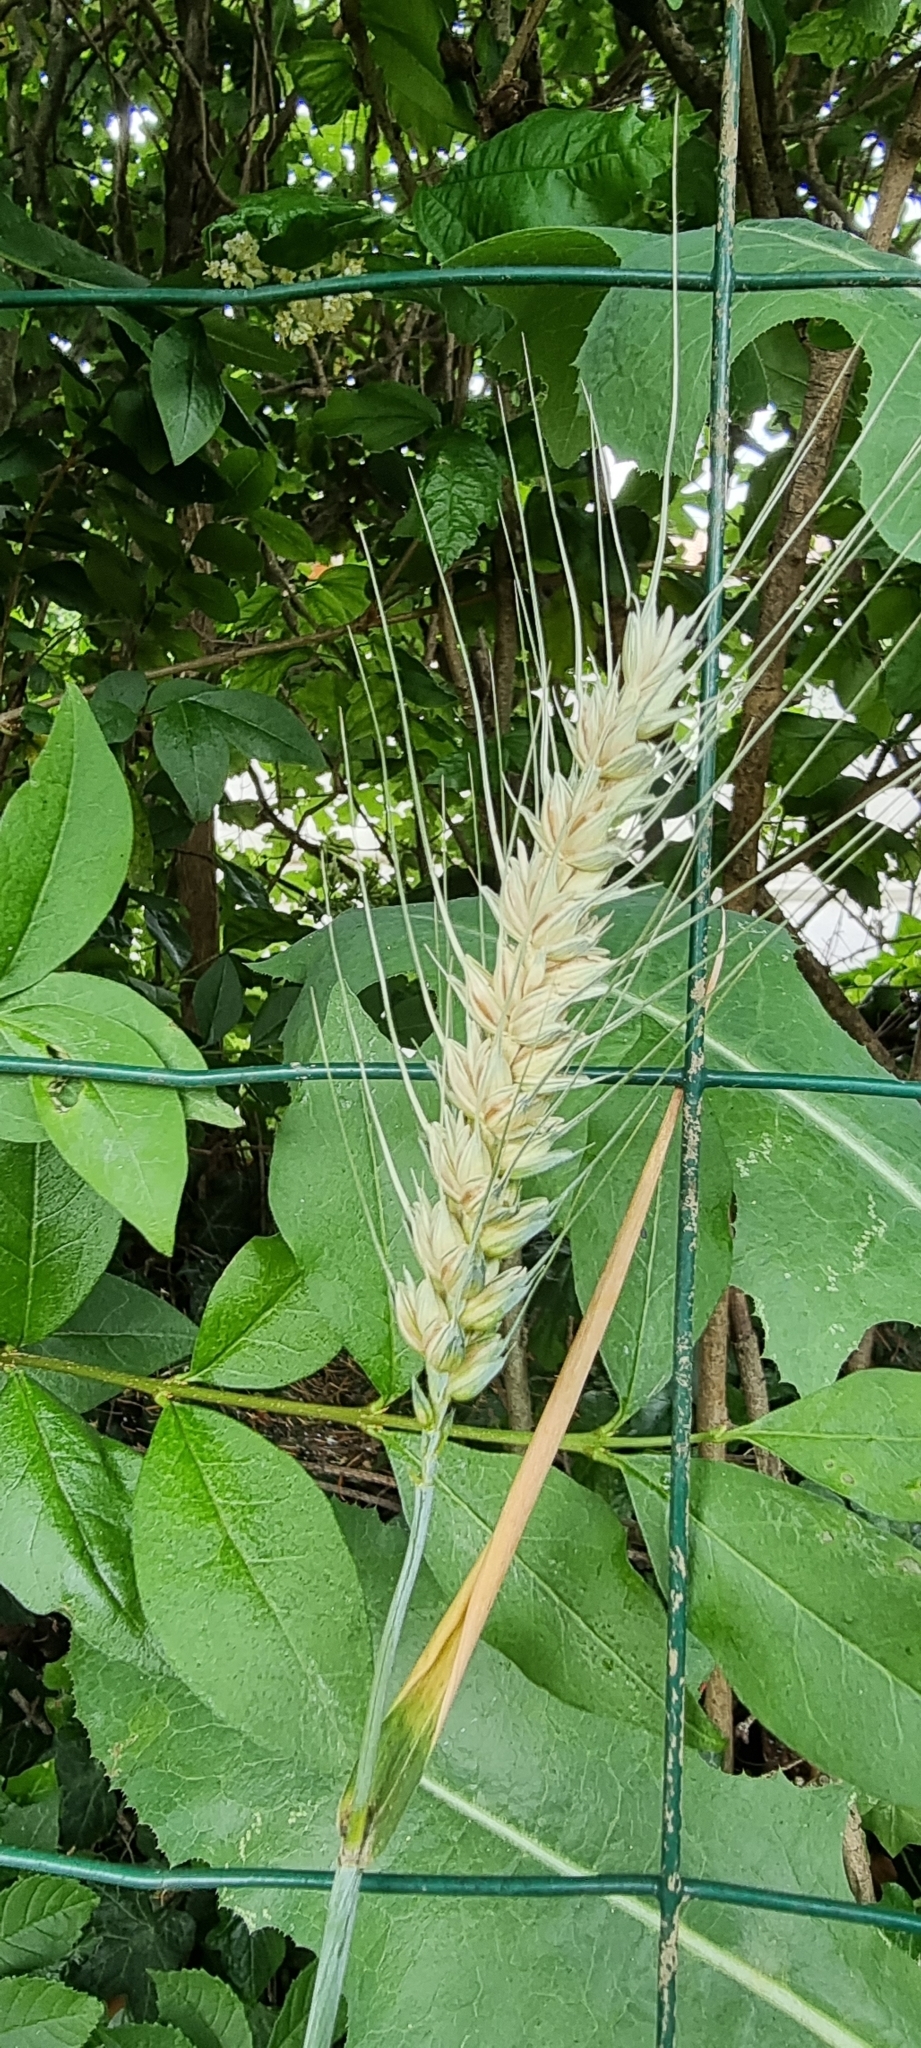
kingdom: Plantae
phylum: Tracheophyta
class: Liliopsida
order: Poales
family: Poaceae
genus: Triticum
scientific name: Triticum aestivum
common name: Common wheat
